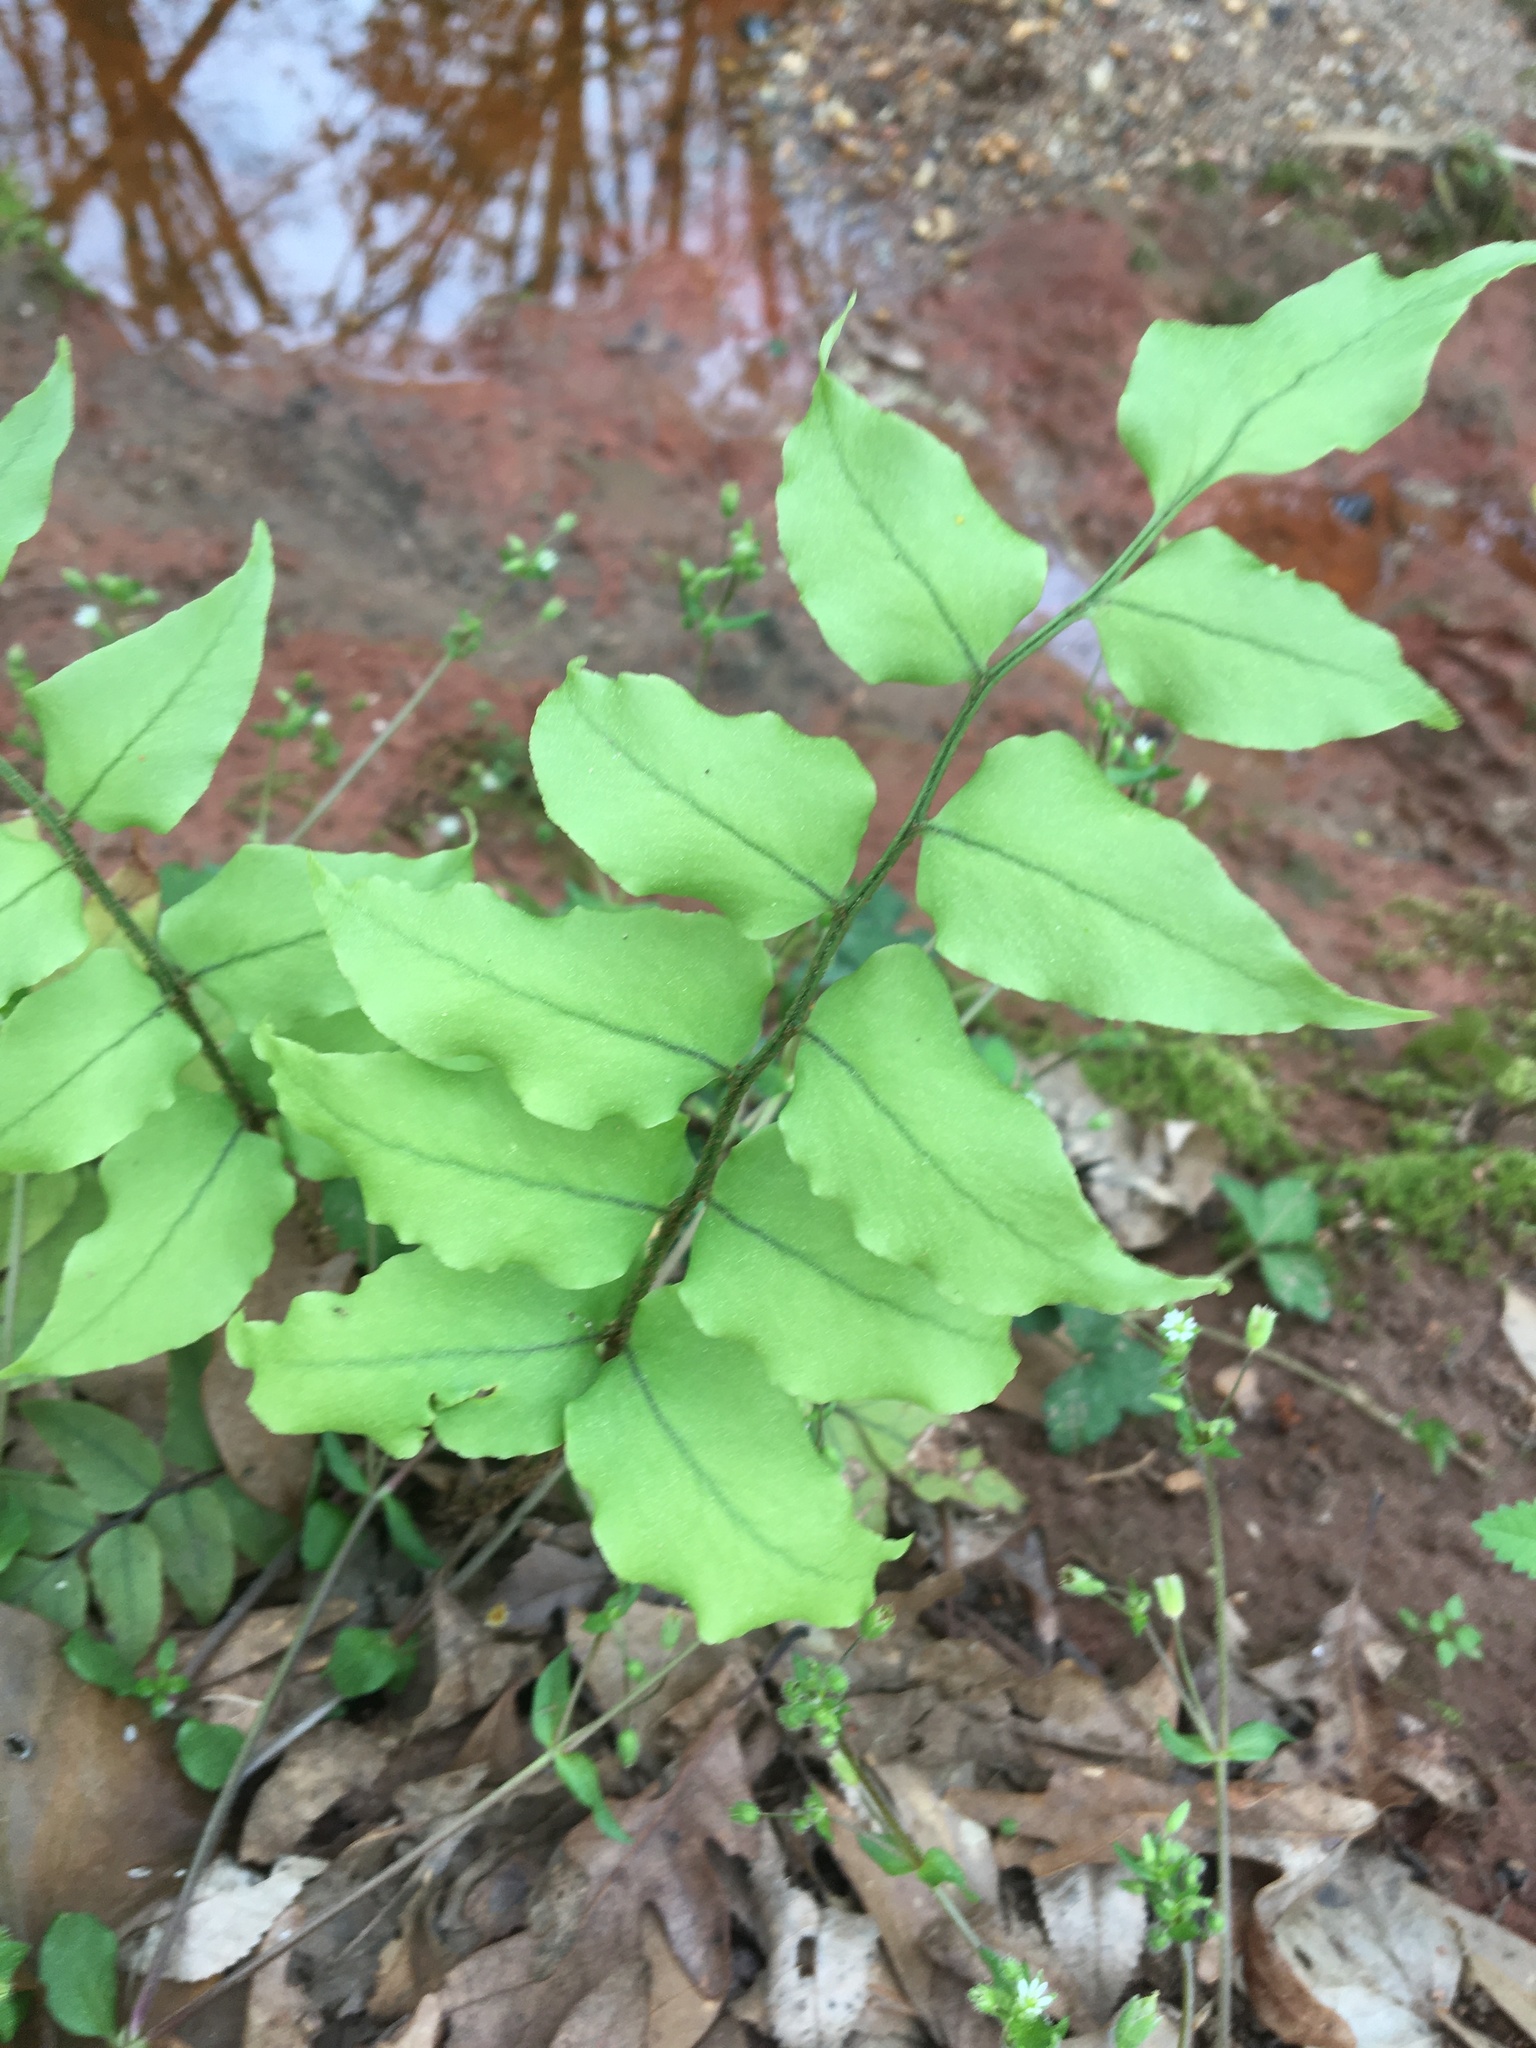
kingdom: Plantae
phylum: Tracheophyta
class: Polypodiopsida
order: Polypodiales
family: Dryopteridaceae
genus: Cyrtomium
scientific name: Cyrtomium fortunei
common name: Asian netvein hollyfern
